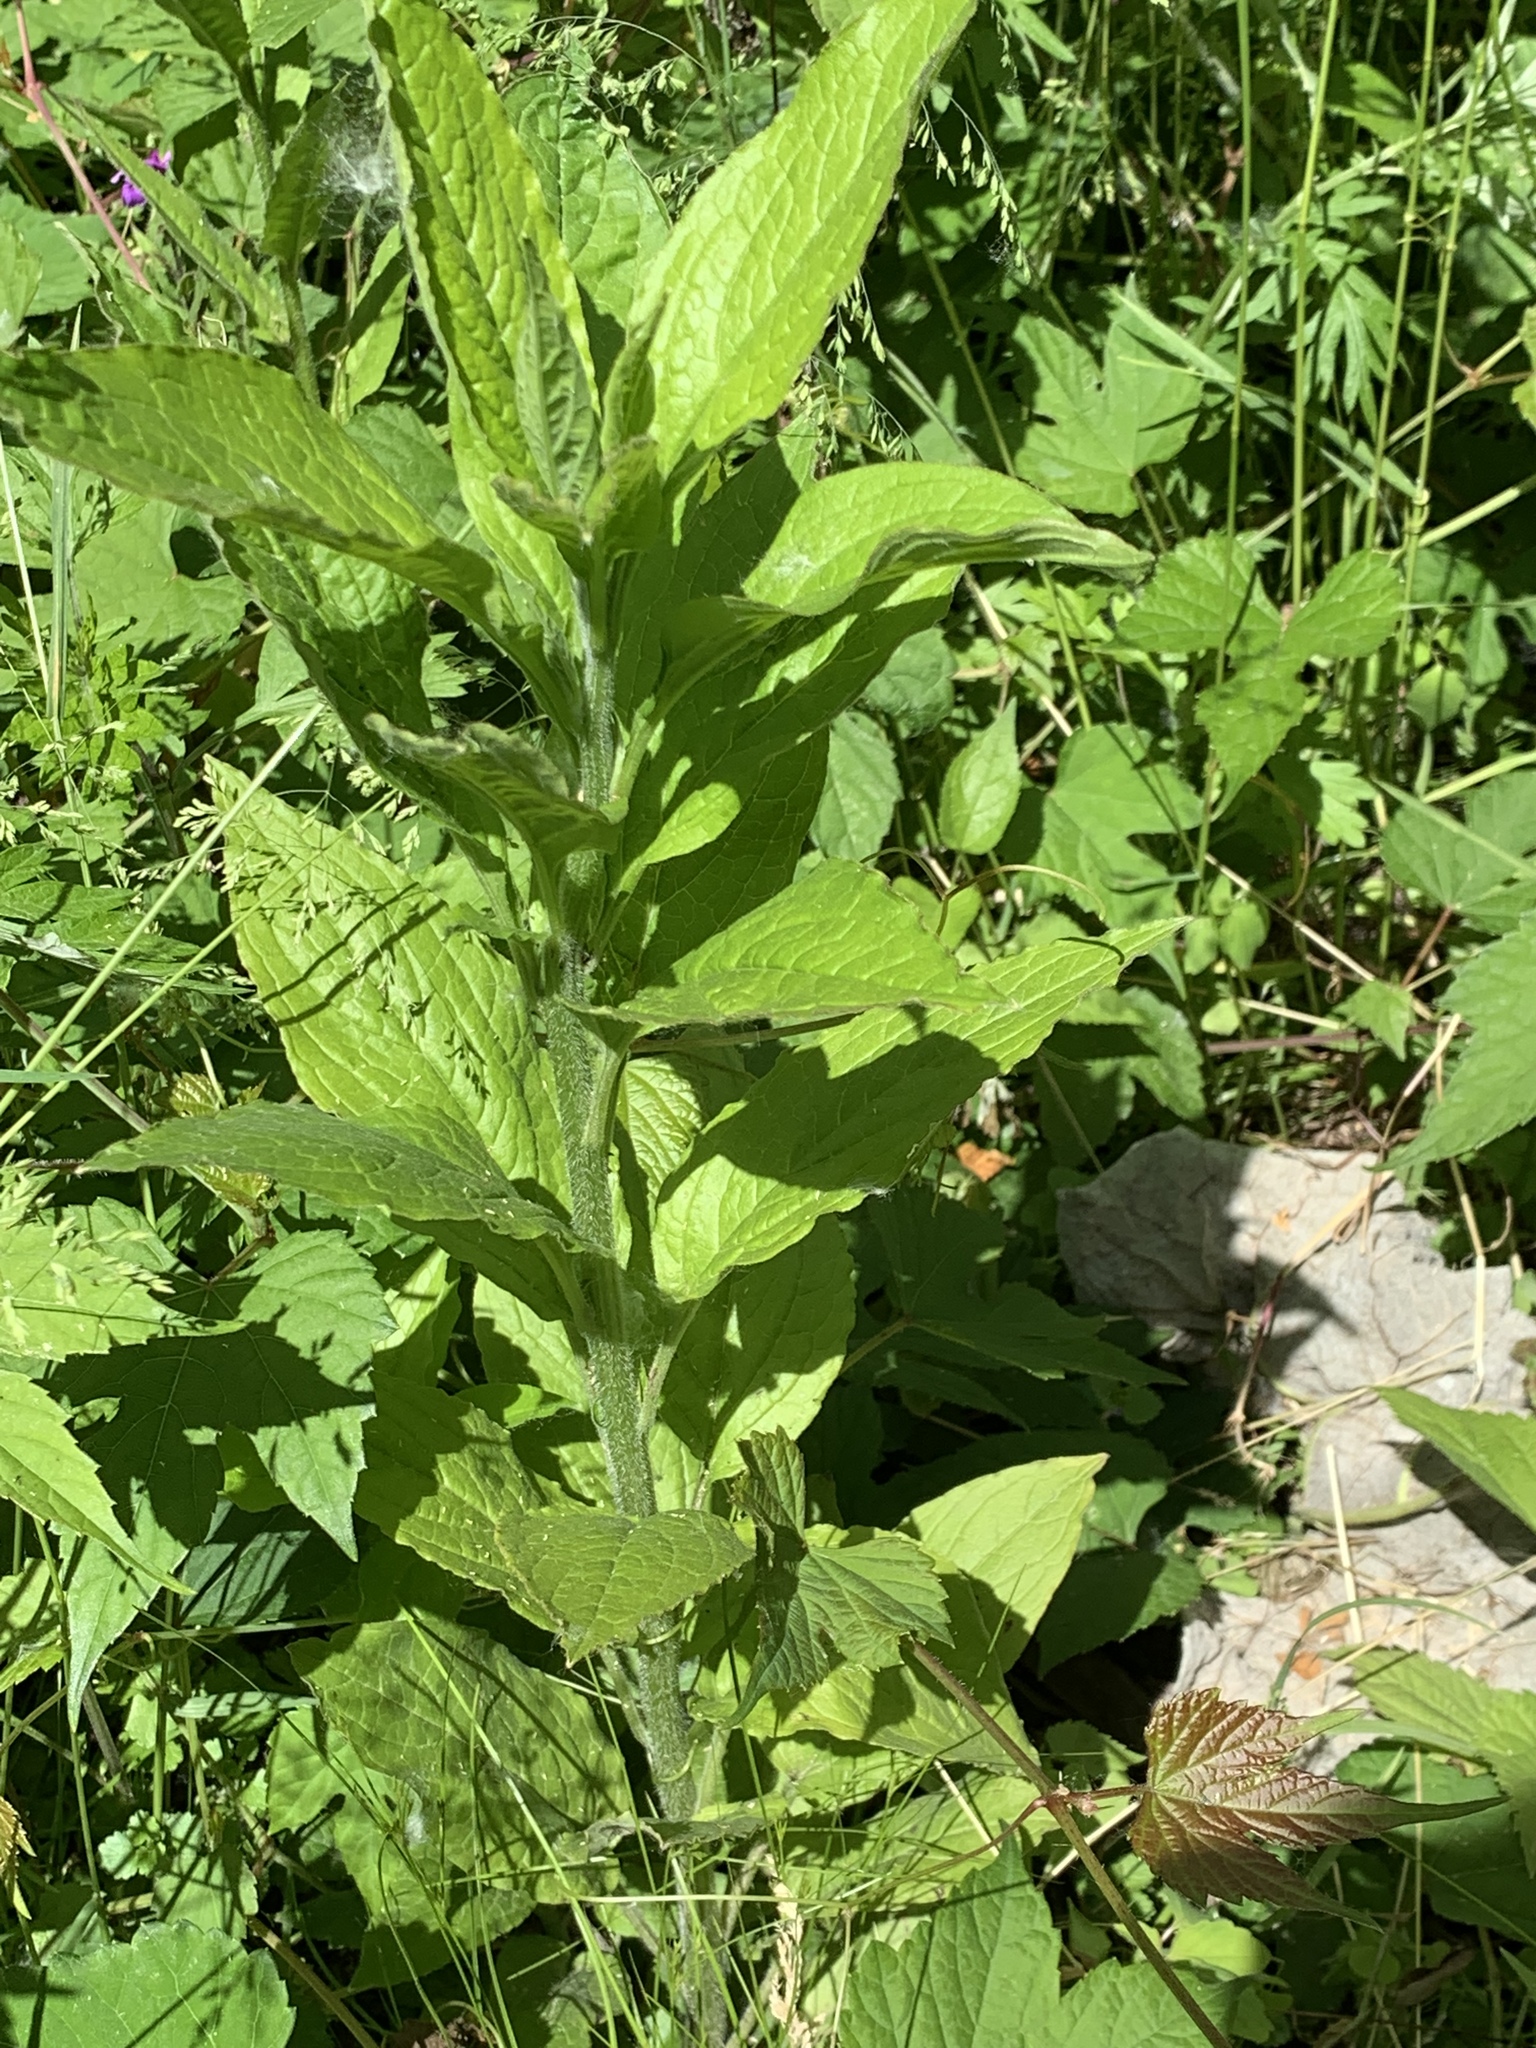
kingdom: Plantae
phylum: Tracheophyta
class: Magnoliopsida
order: Boraginales
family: Boraginaceae
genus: Hackelia
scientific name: Hackelia virginiana
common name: Beggar's-lice
